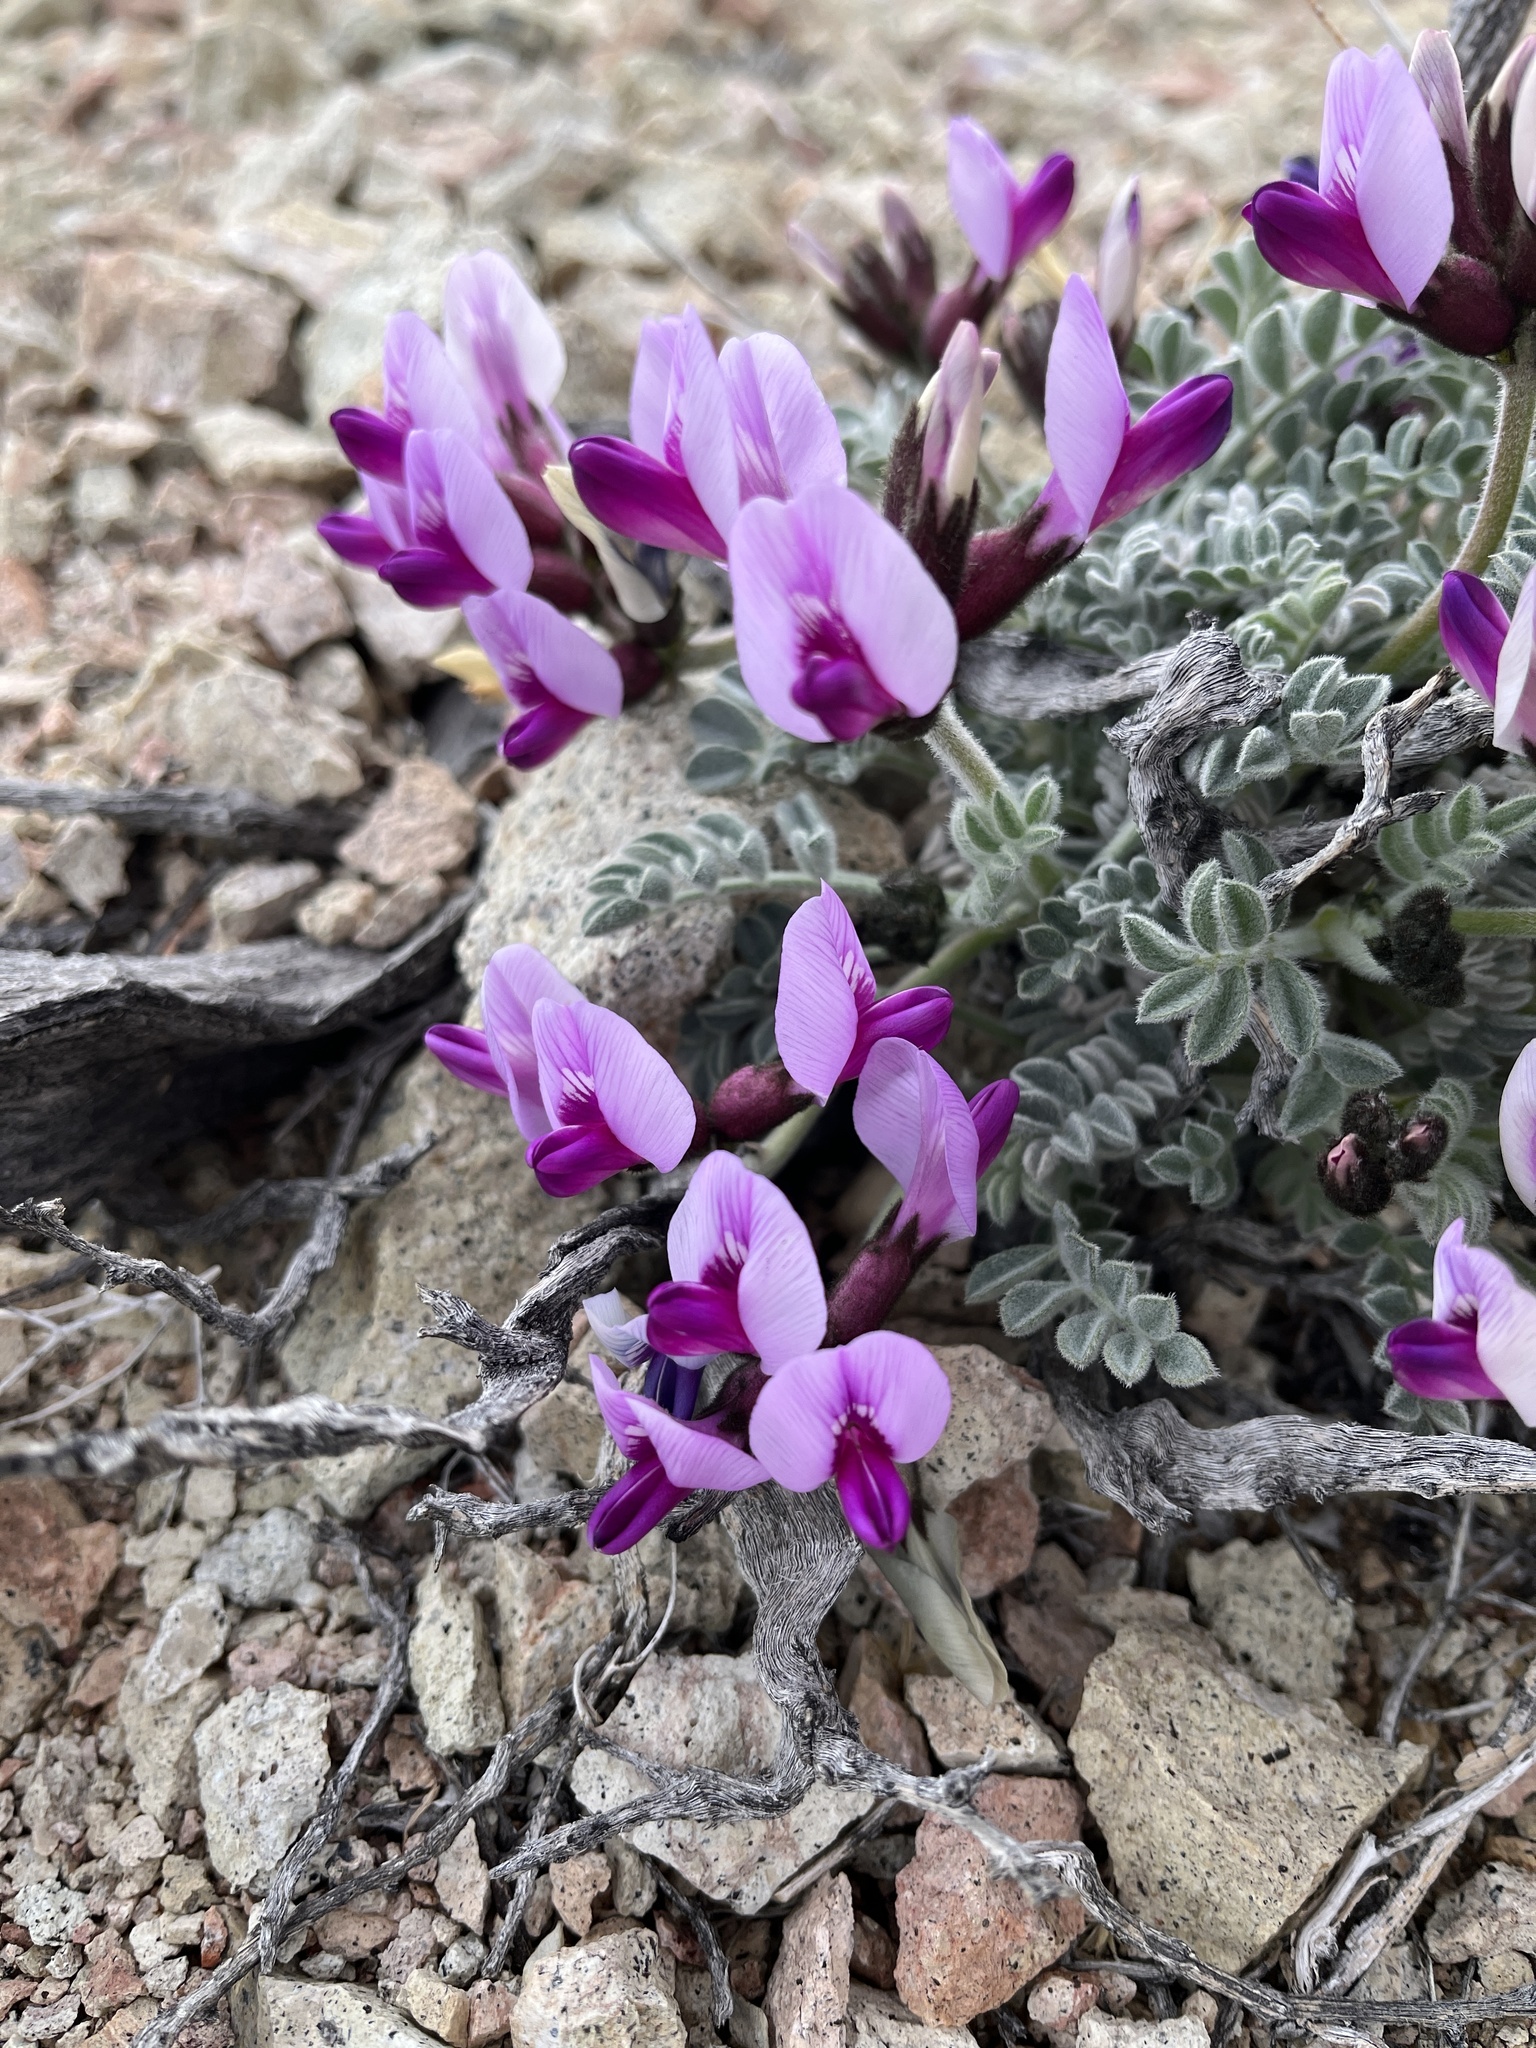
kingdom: Plantae
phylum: Tracheophyta
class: Magnoliopsida
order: Fabales
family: Fabaceae
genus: Astragalus
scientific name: Astragalus funereus
